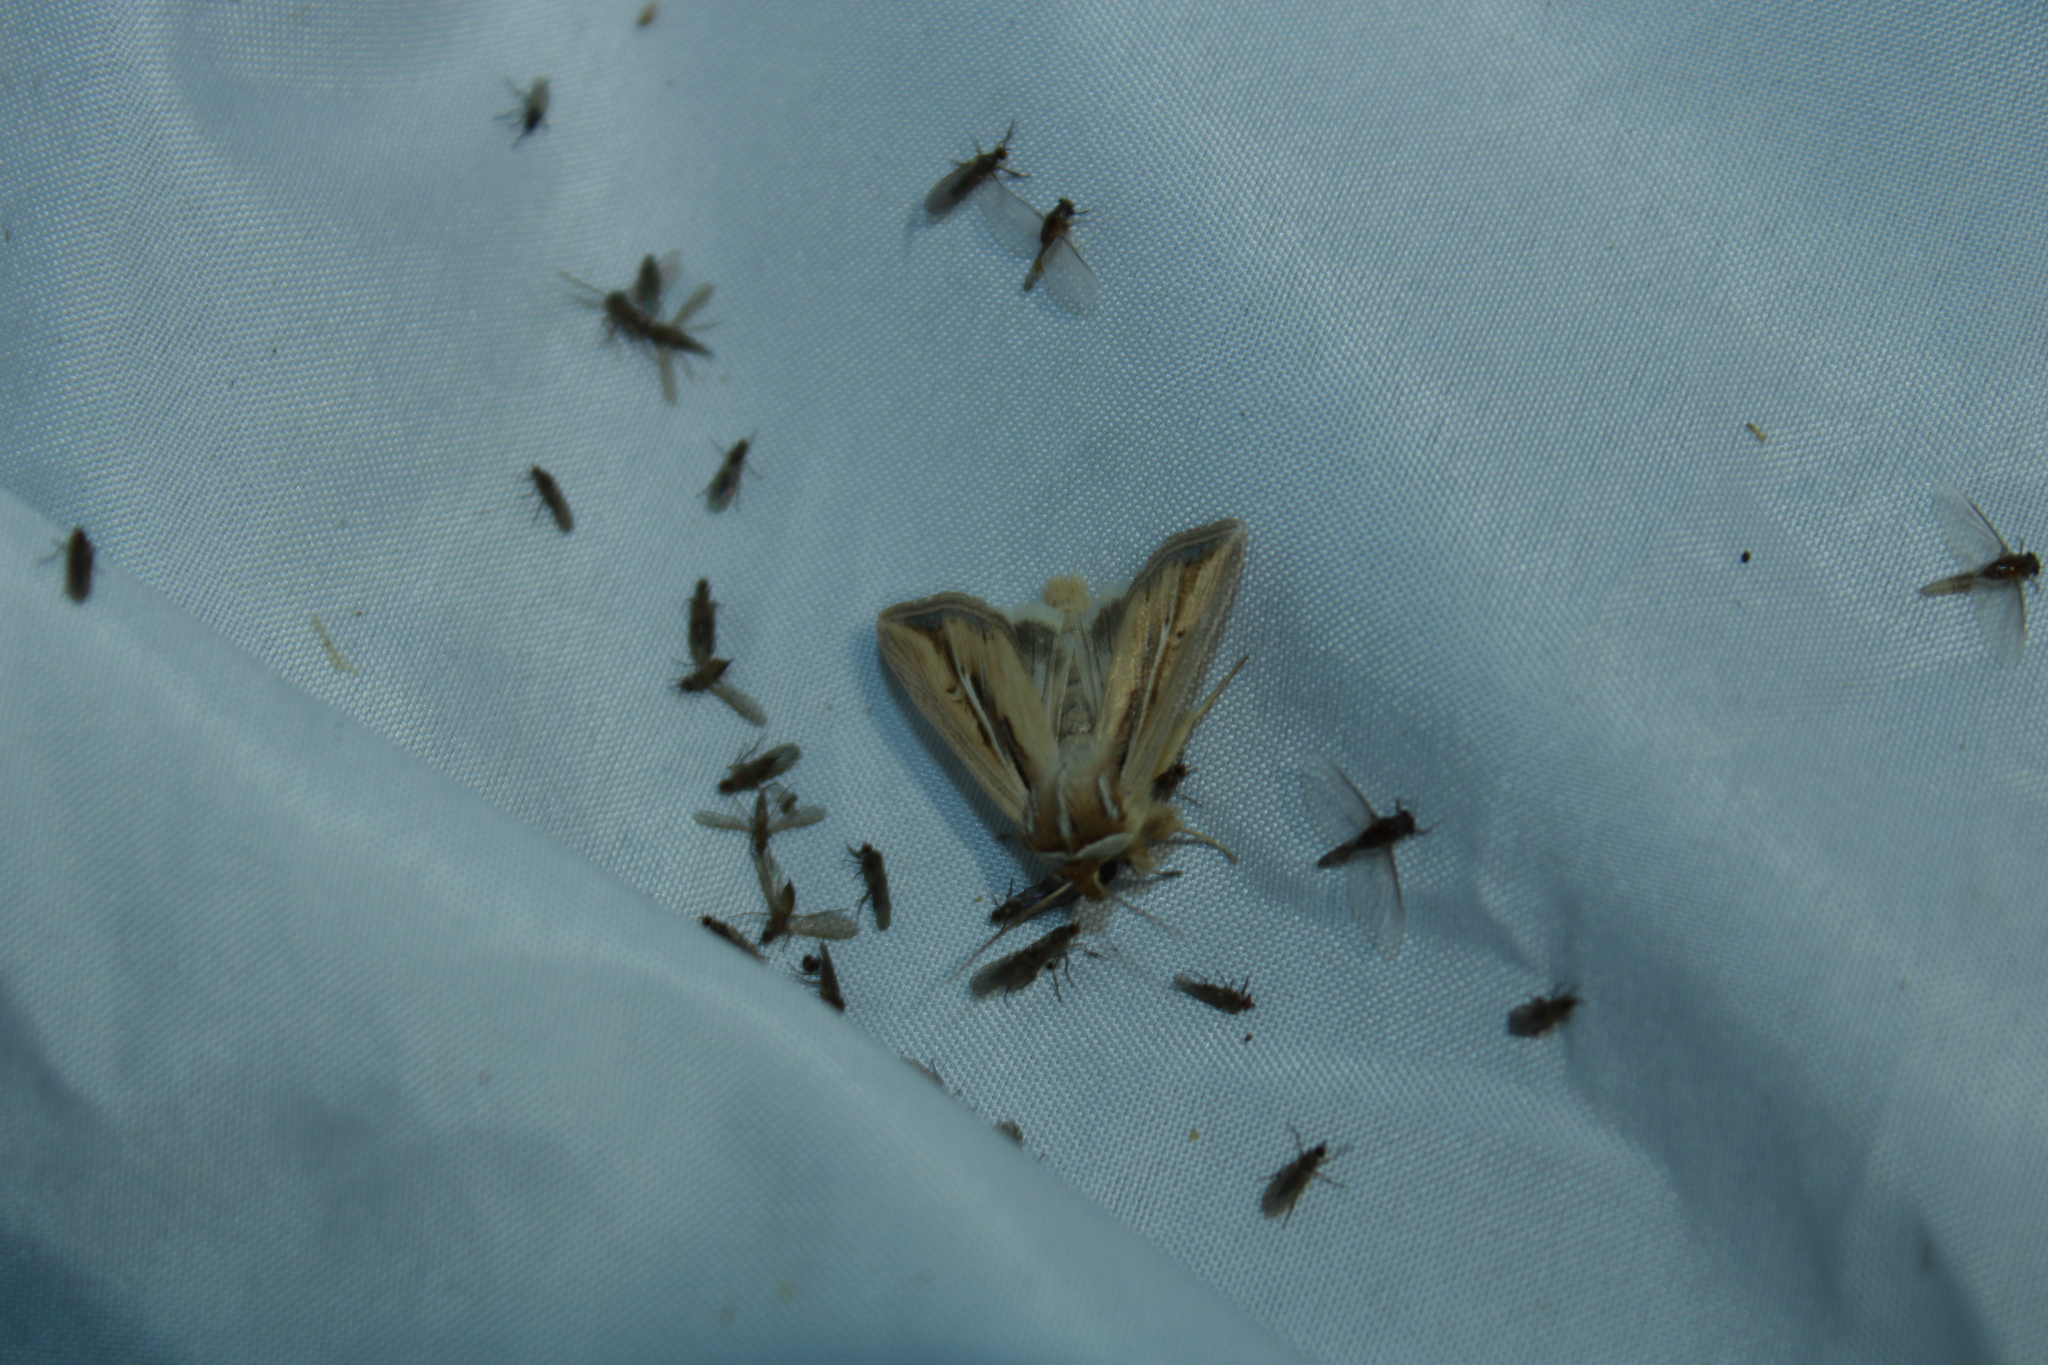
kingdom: Animalia
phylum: Arthropoda
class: Insecta
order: Lepidoptera
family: Noctuidae
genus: Dargida
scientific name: Dargida diffusa
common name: Wheat head armyworm
